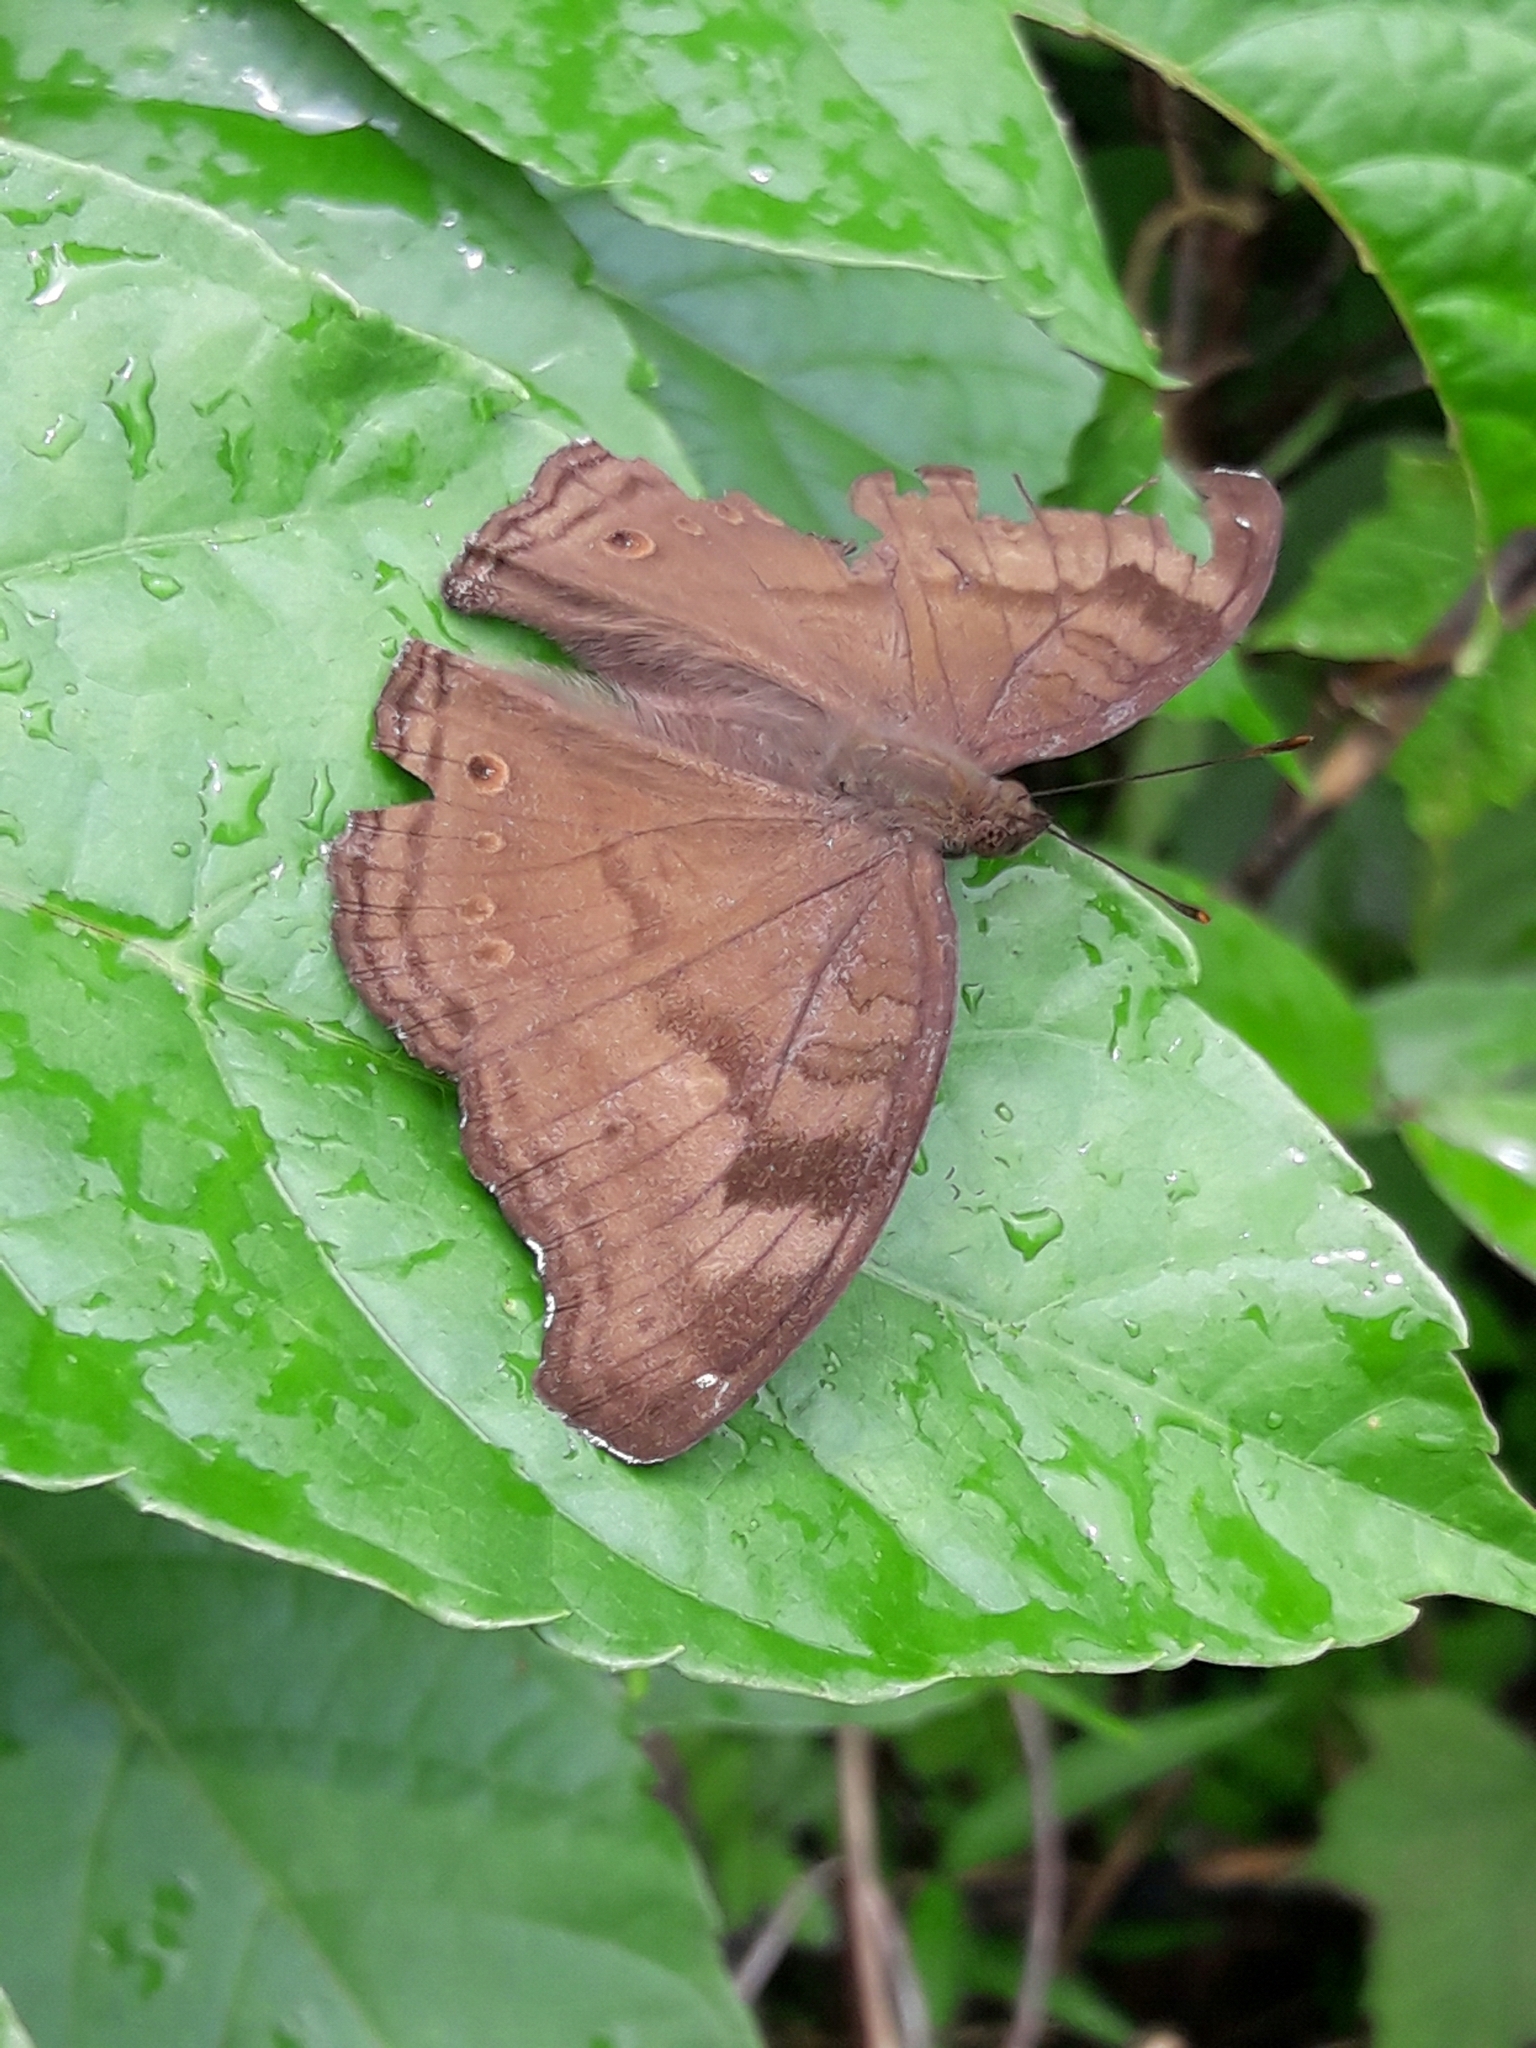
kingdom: Animalia
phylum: Arthropoda
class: Insecta
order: Lepidoptera
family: Nymphalidae
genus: Junonia
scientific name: Junonia iphita
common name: Chocolate pansy
